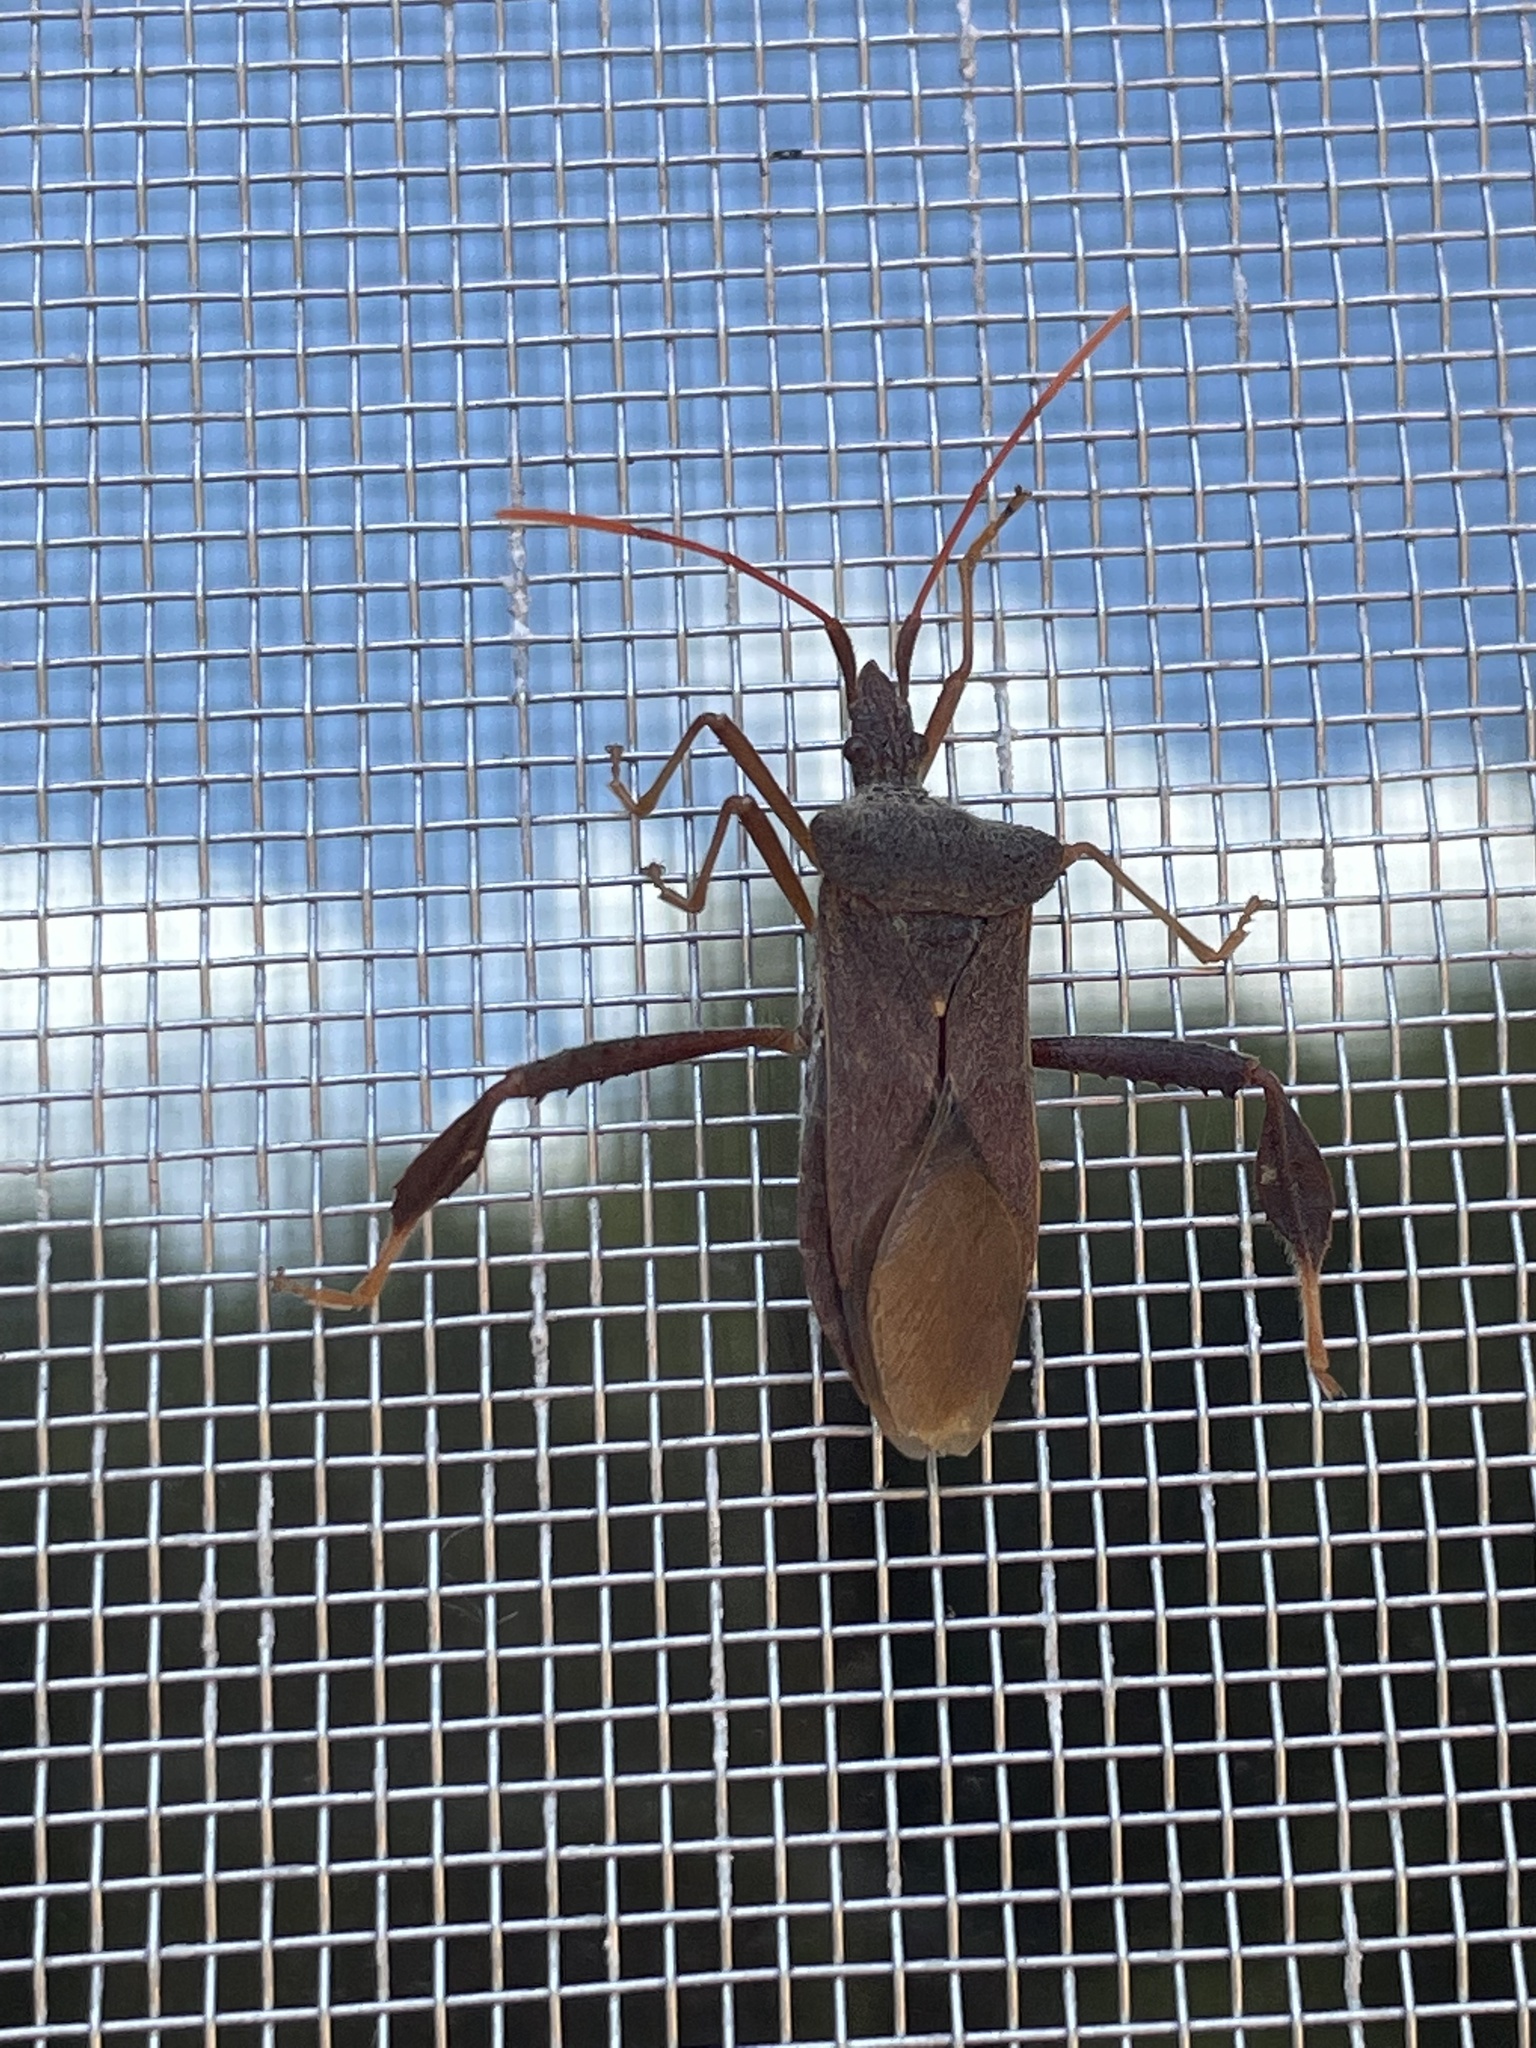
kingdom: Animalia
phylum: Arthropoda
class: Insecta
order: Hemiptera
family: Coreidae
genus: Leptoglossus
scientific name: Leptoglossus fulvicornis
